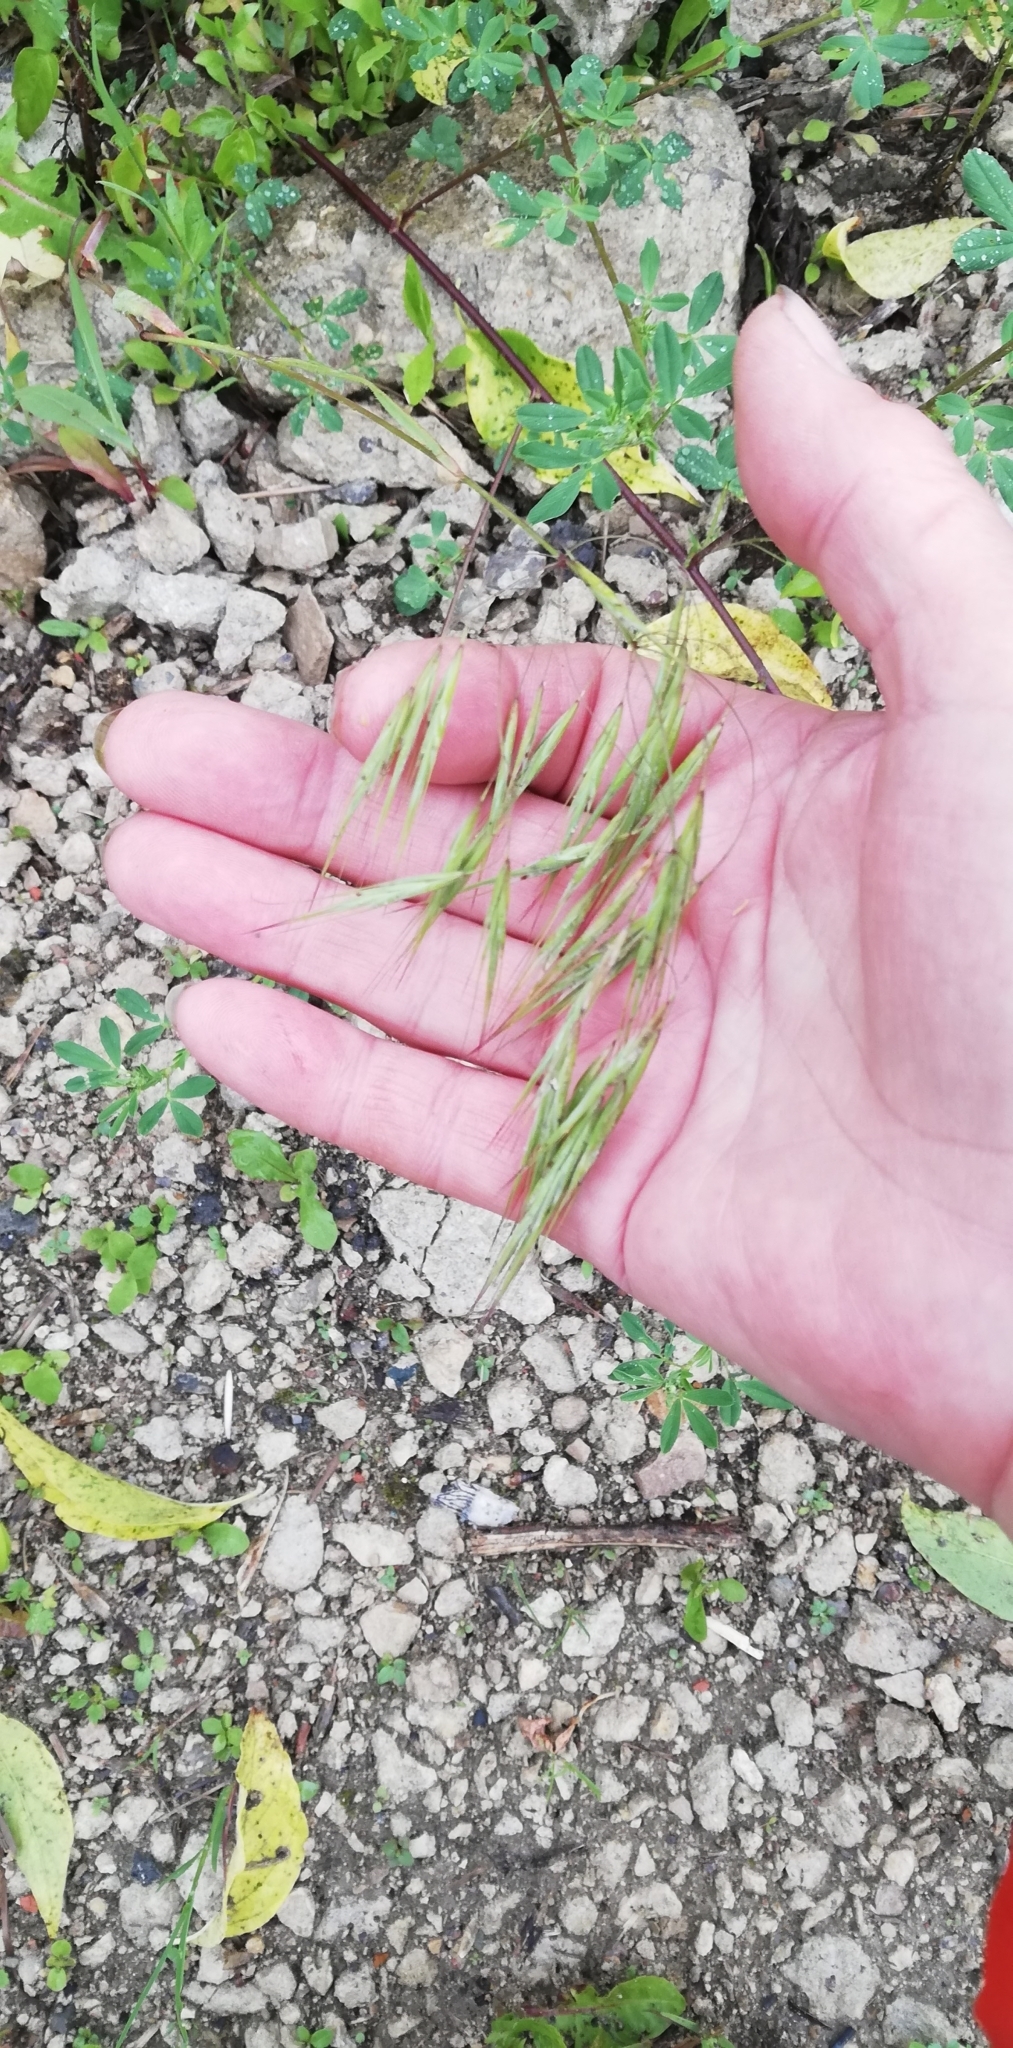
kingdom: Plantae
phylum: Tracheophyta
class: Liliopsida
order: Poales
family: Poaceae
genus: Bromus
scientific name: Bromus tectorum
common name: Cheatgrass
